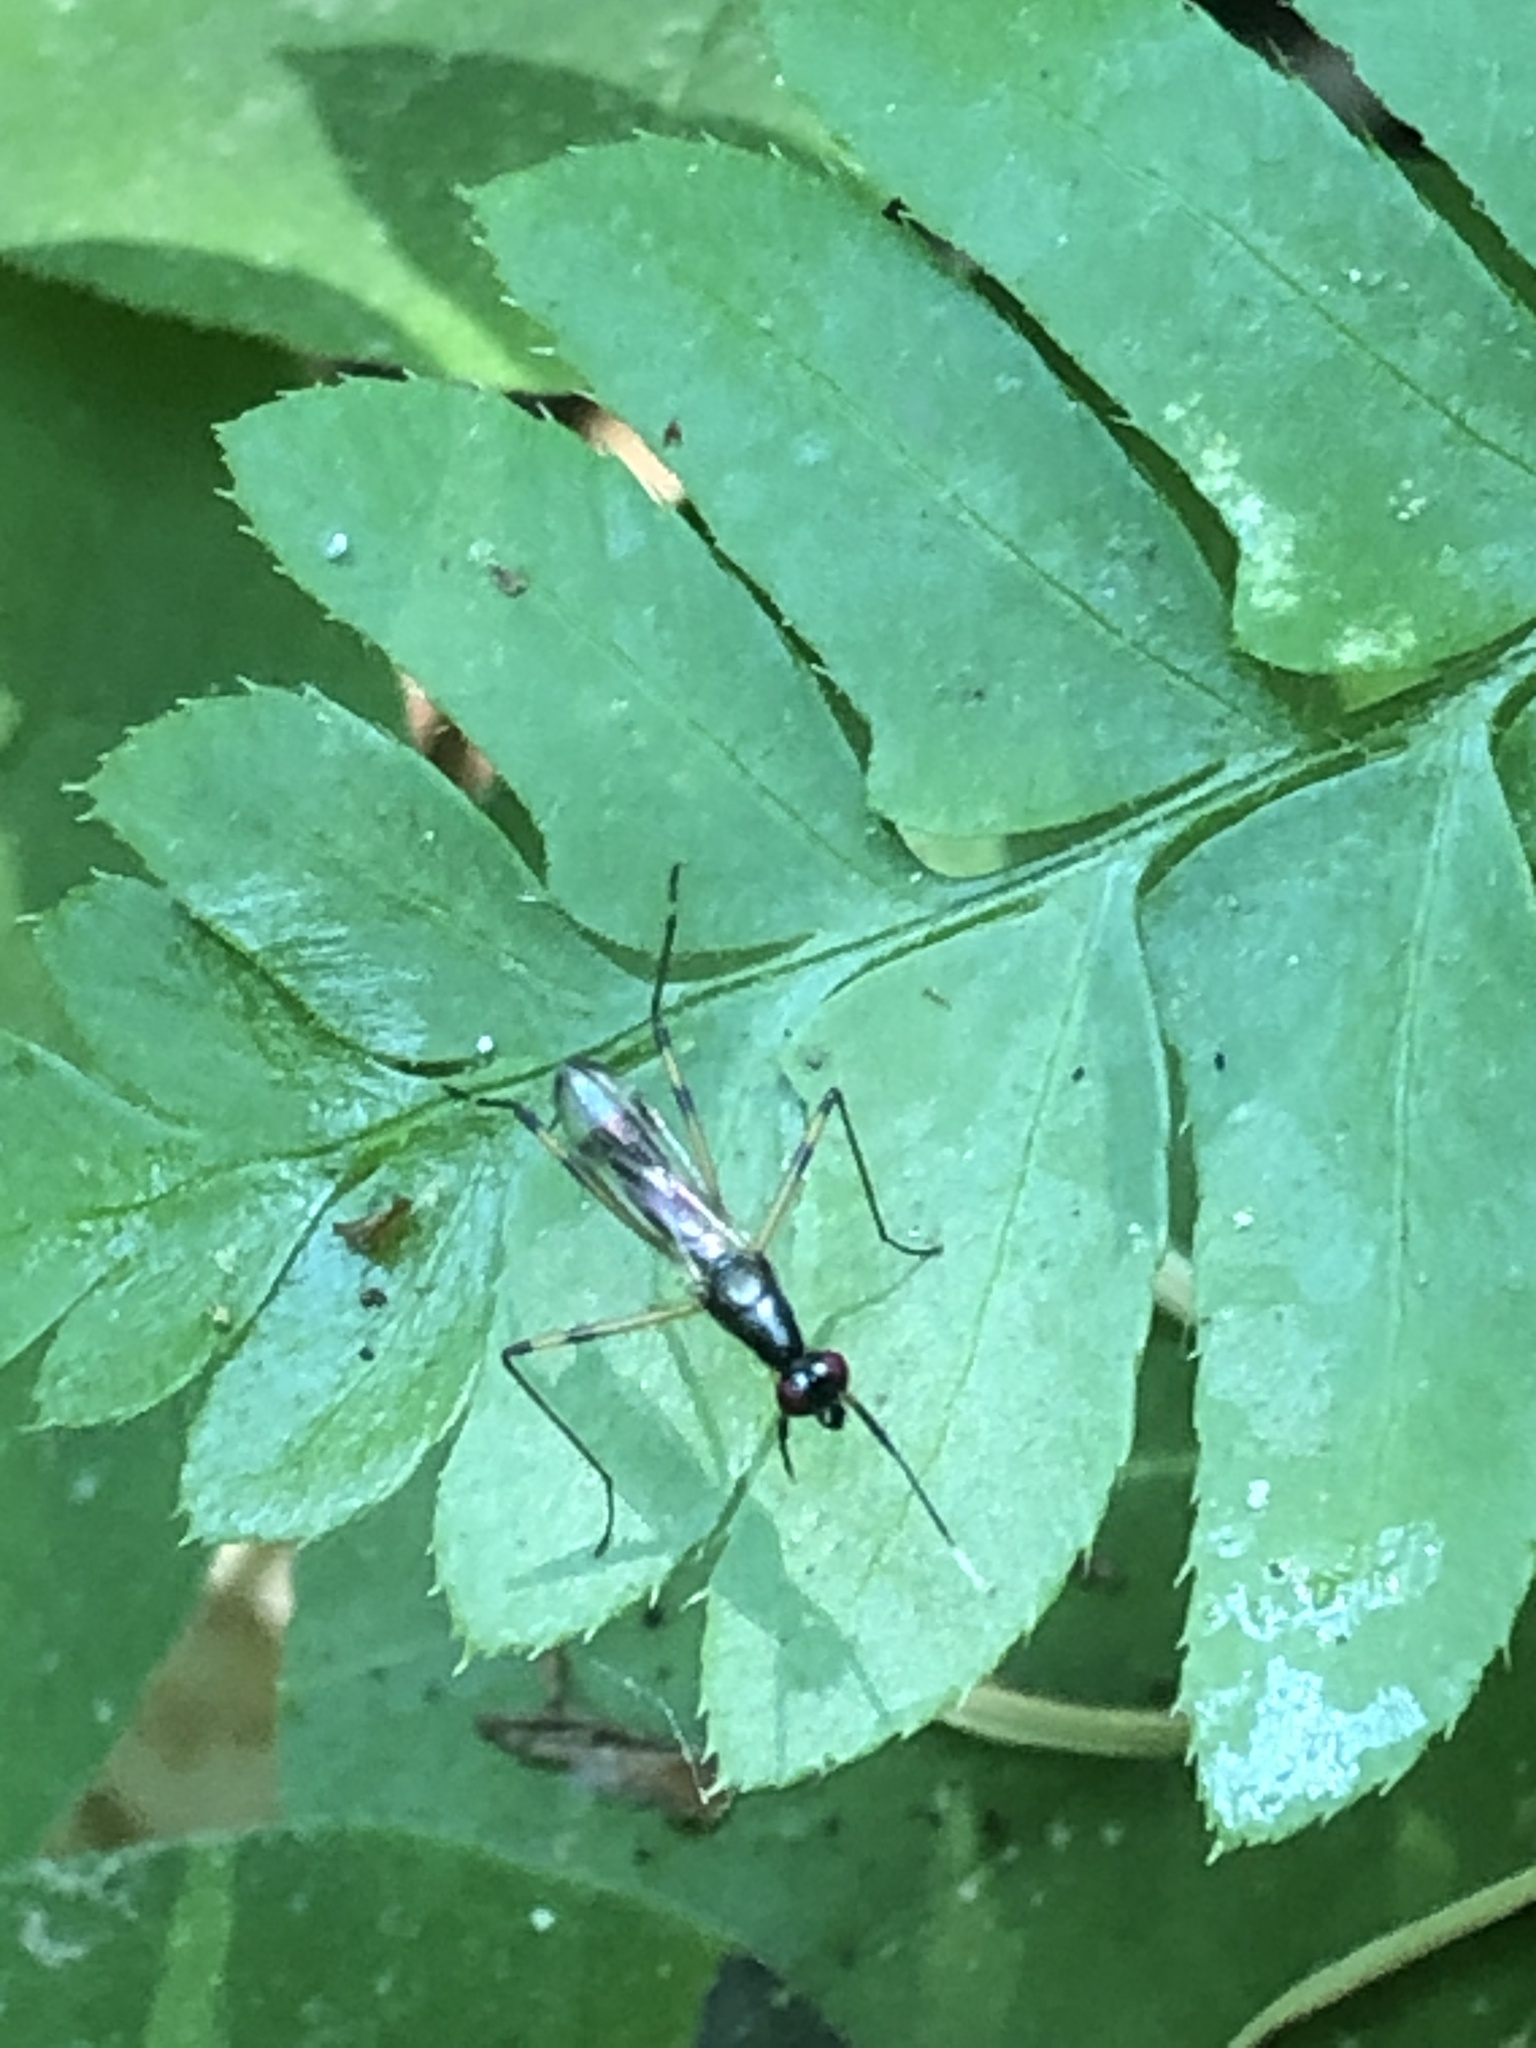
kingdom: Animalia
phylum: Arthropoda
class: Insecta
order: Diptera
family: Micropezidae
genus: Rainieria
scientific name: Rainieria antennaepes
